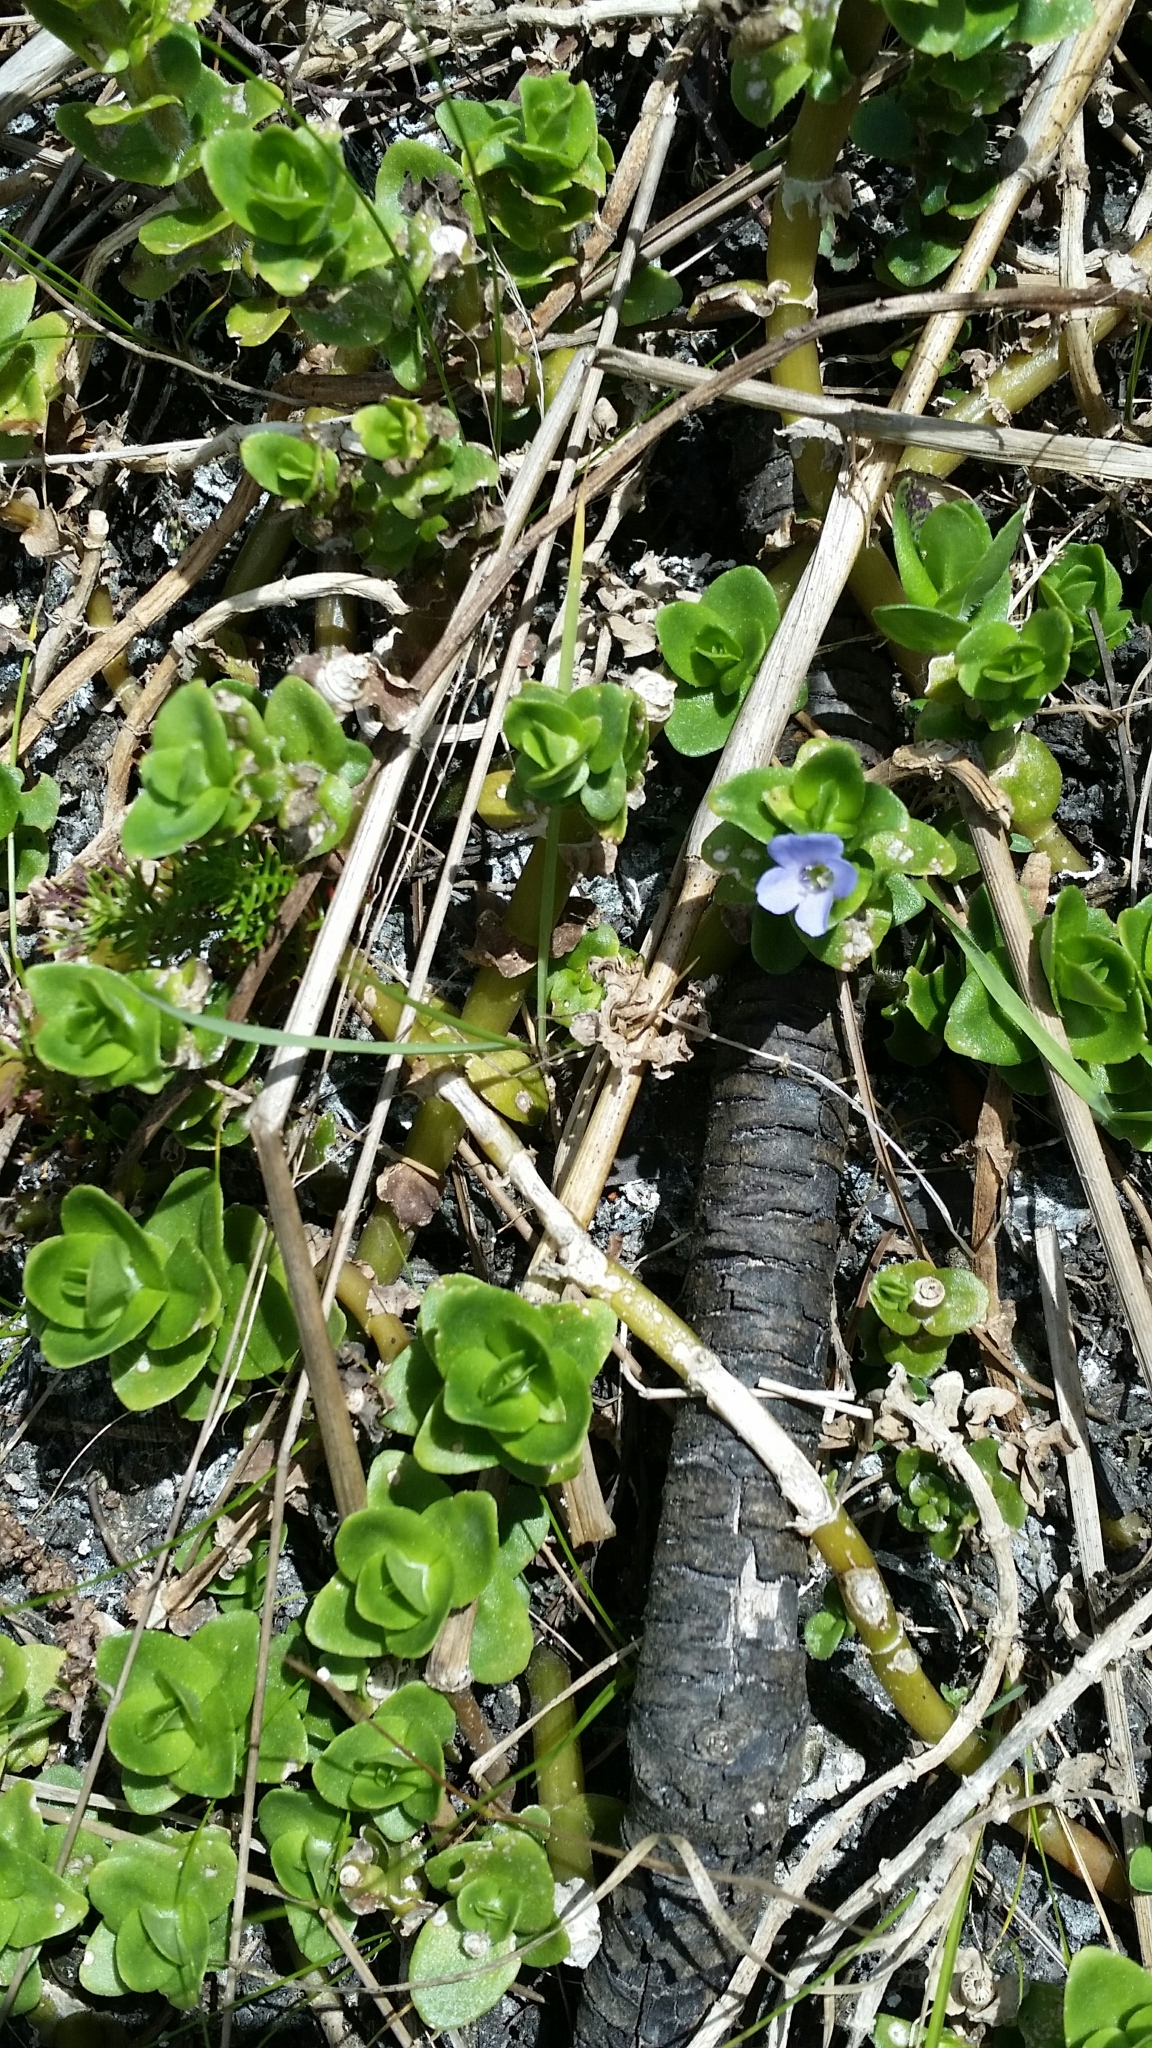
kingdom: Plantae
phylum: Tracheophyta
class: Magnoliopsida
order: Lamiales
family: Plantaginaceae
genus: Bacopa
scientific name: Bacopa caroliniana
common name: Lemon bacopa
